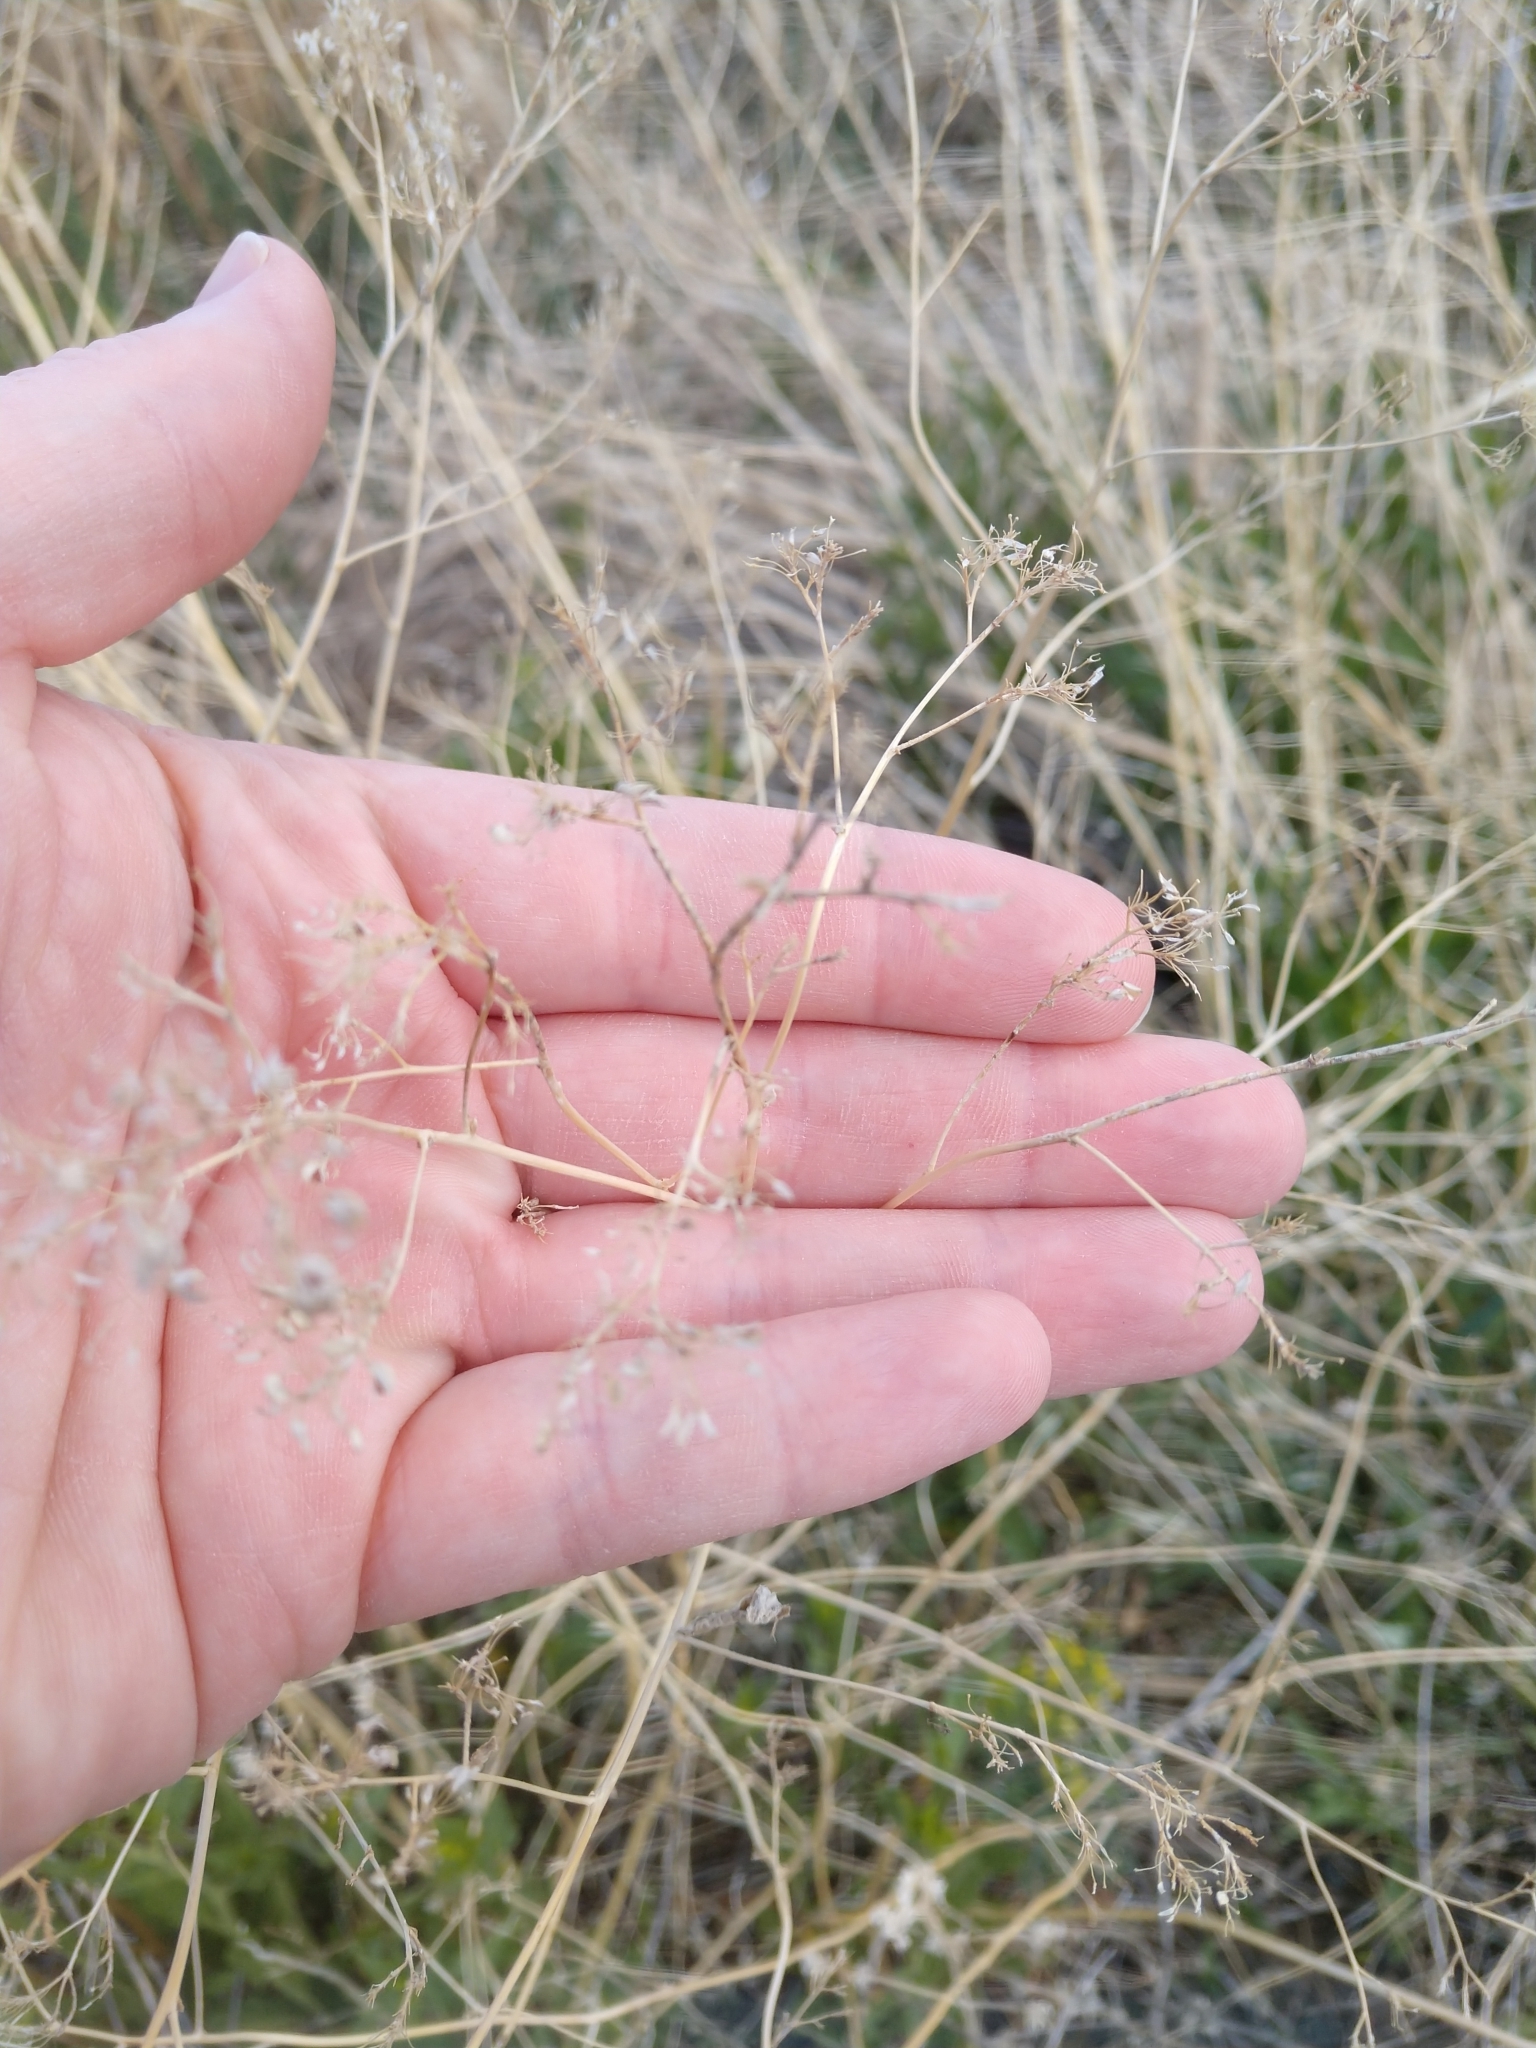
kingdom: Plantae
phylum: Tracheophyta
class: Magnoliopsida
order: Brassicales
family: Brassicaceae
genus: Lepidium
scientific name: Lepidium latifolium
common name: Dittander
